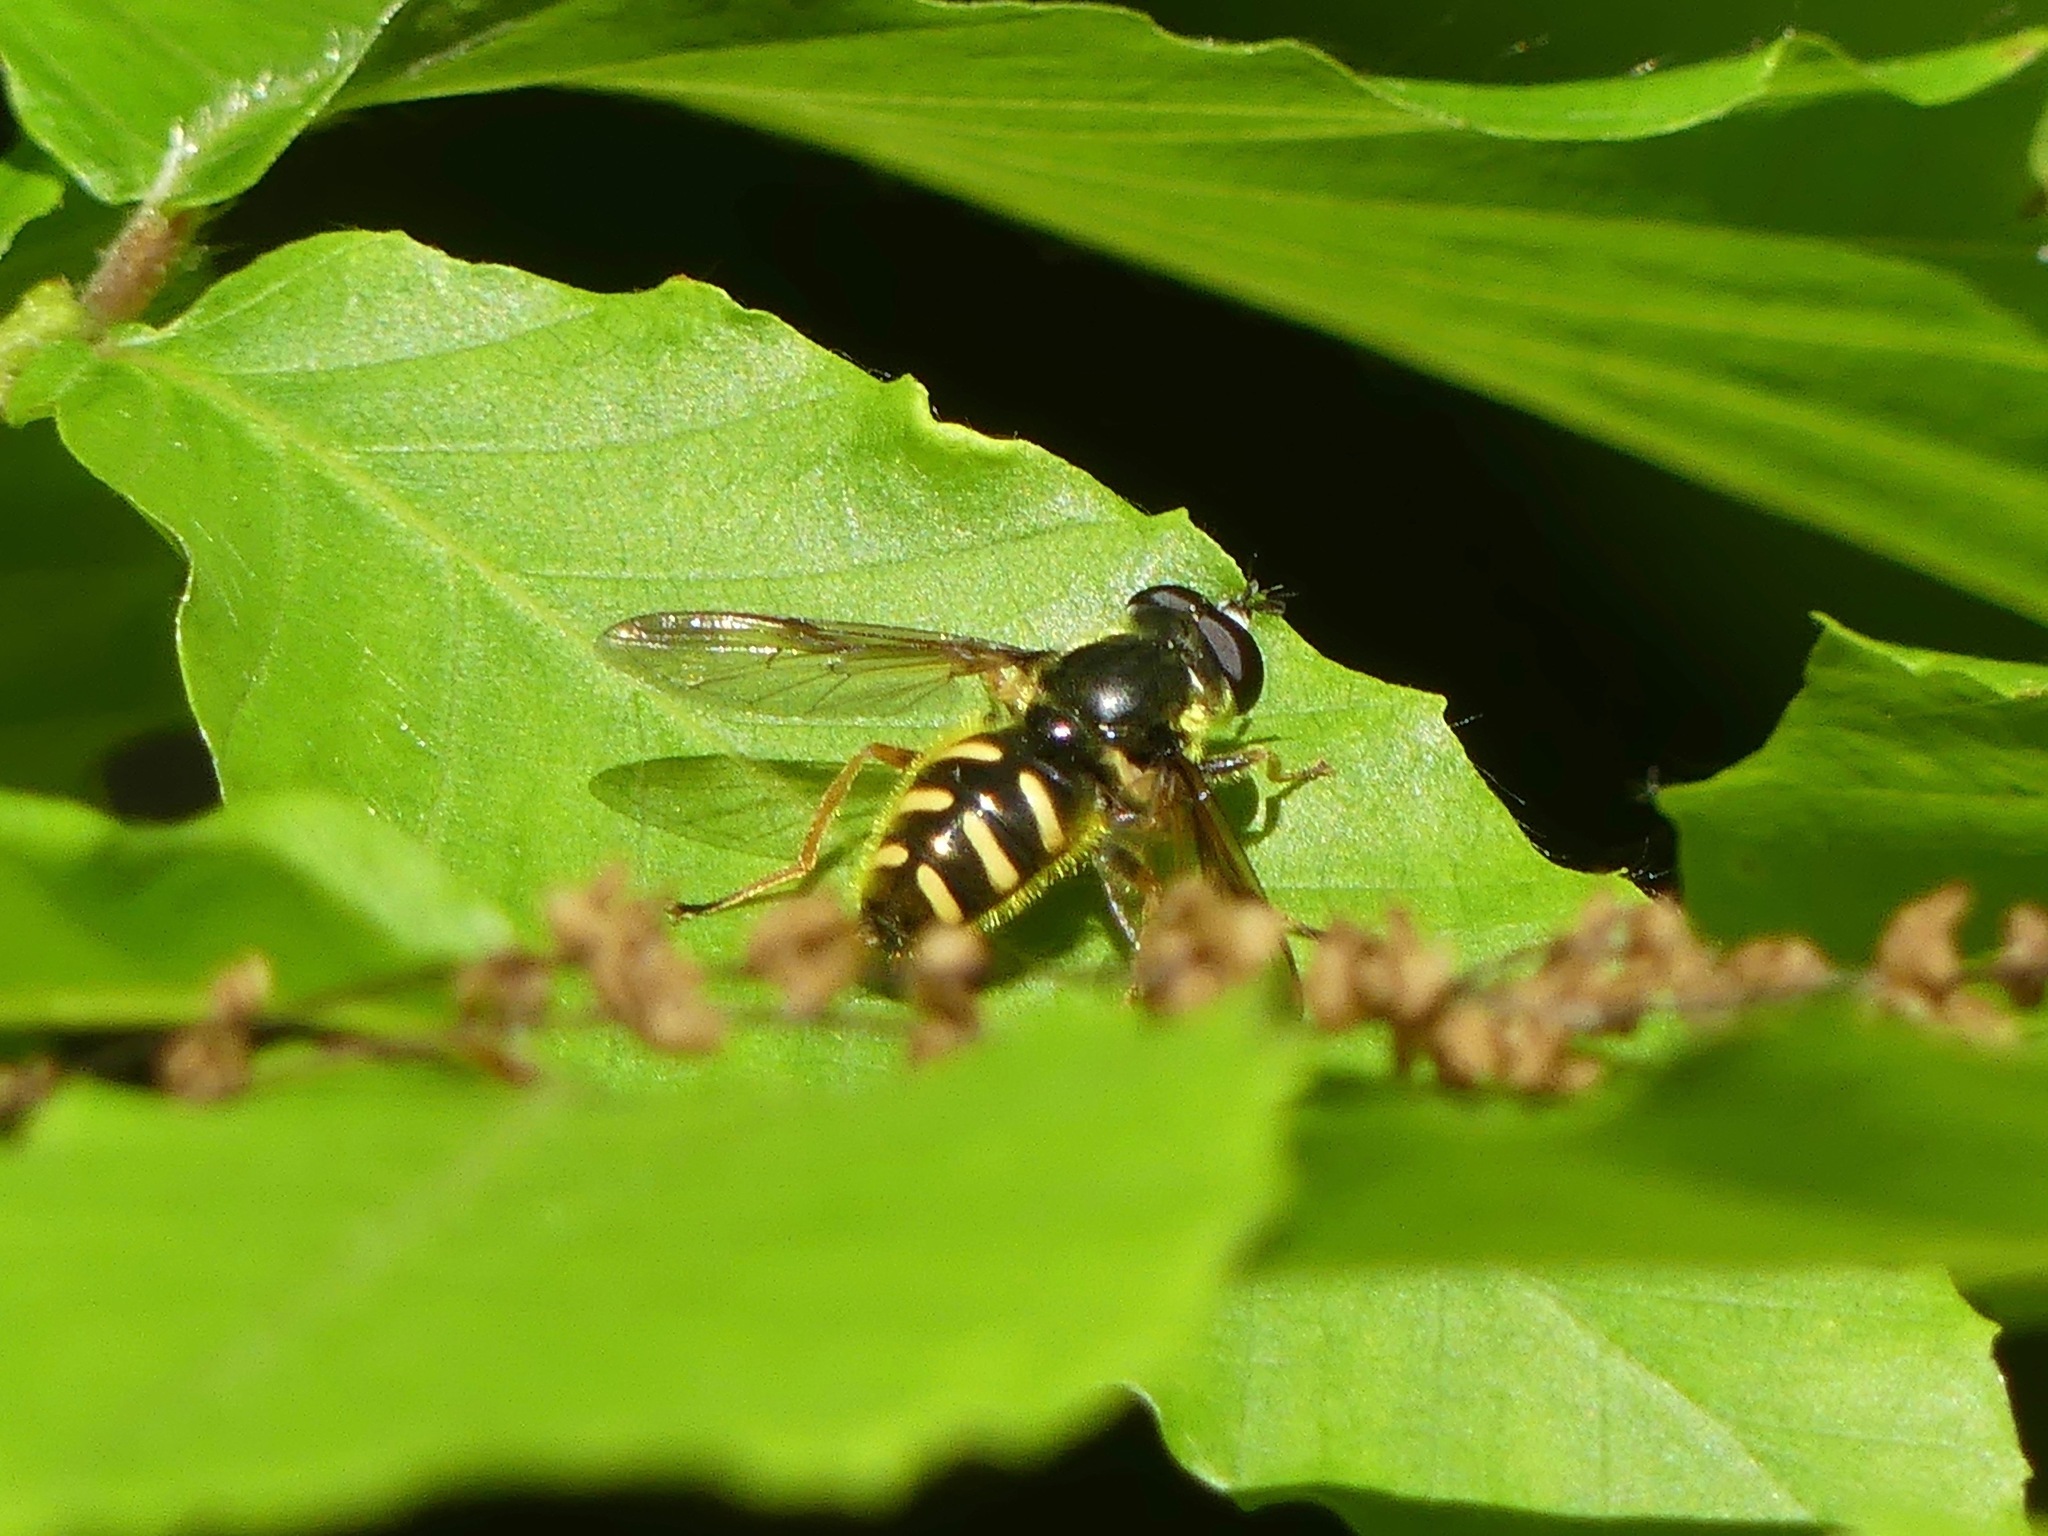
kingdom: Animalia
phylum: Arthropoda
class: Insecta
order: Diptera
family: Syrphidae
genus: Sericomyia
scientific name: Sericomyia chrysotoxoides
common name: Oblique-banded pond fly
